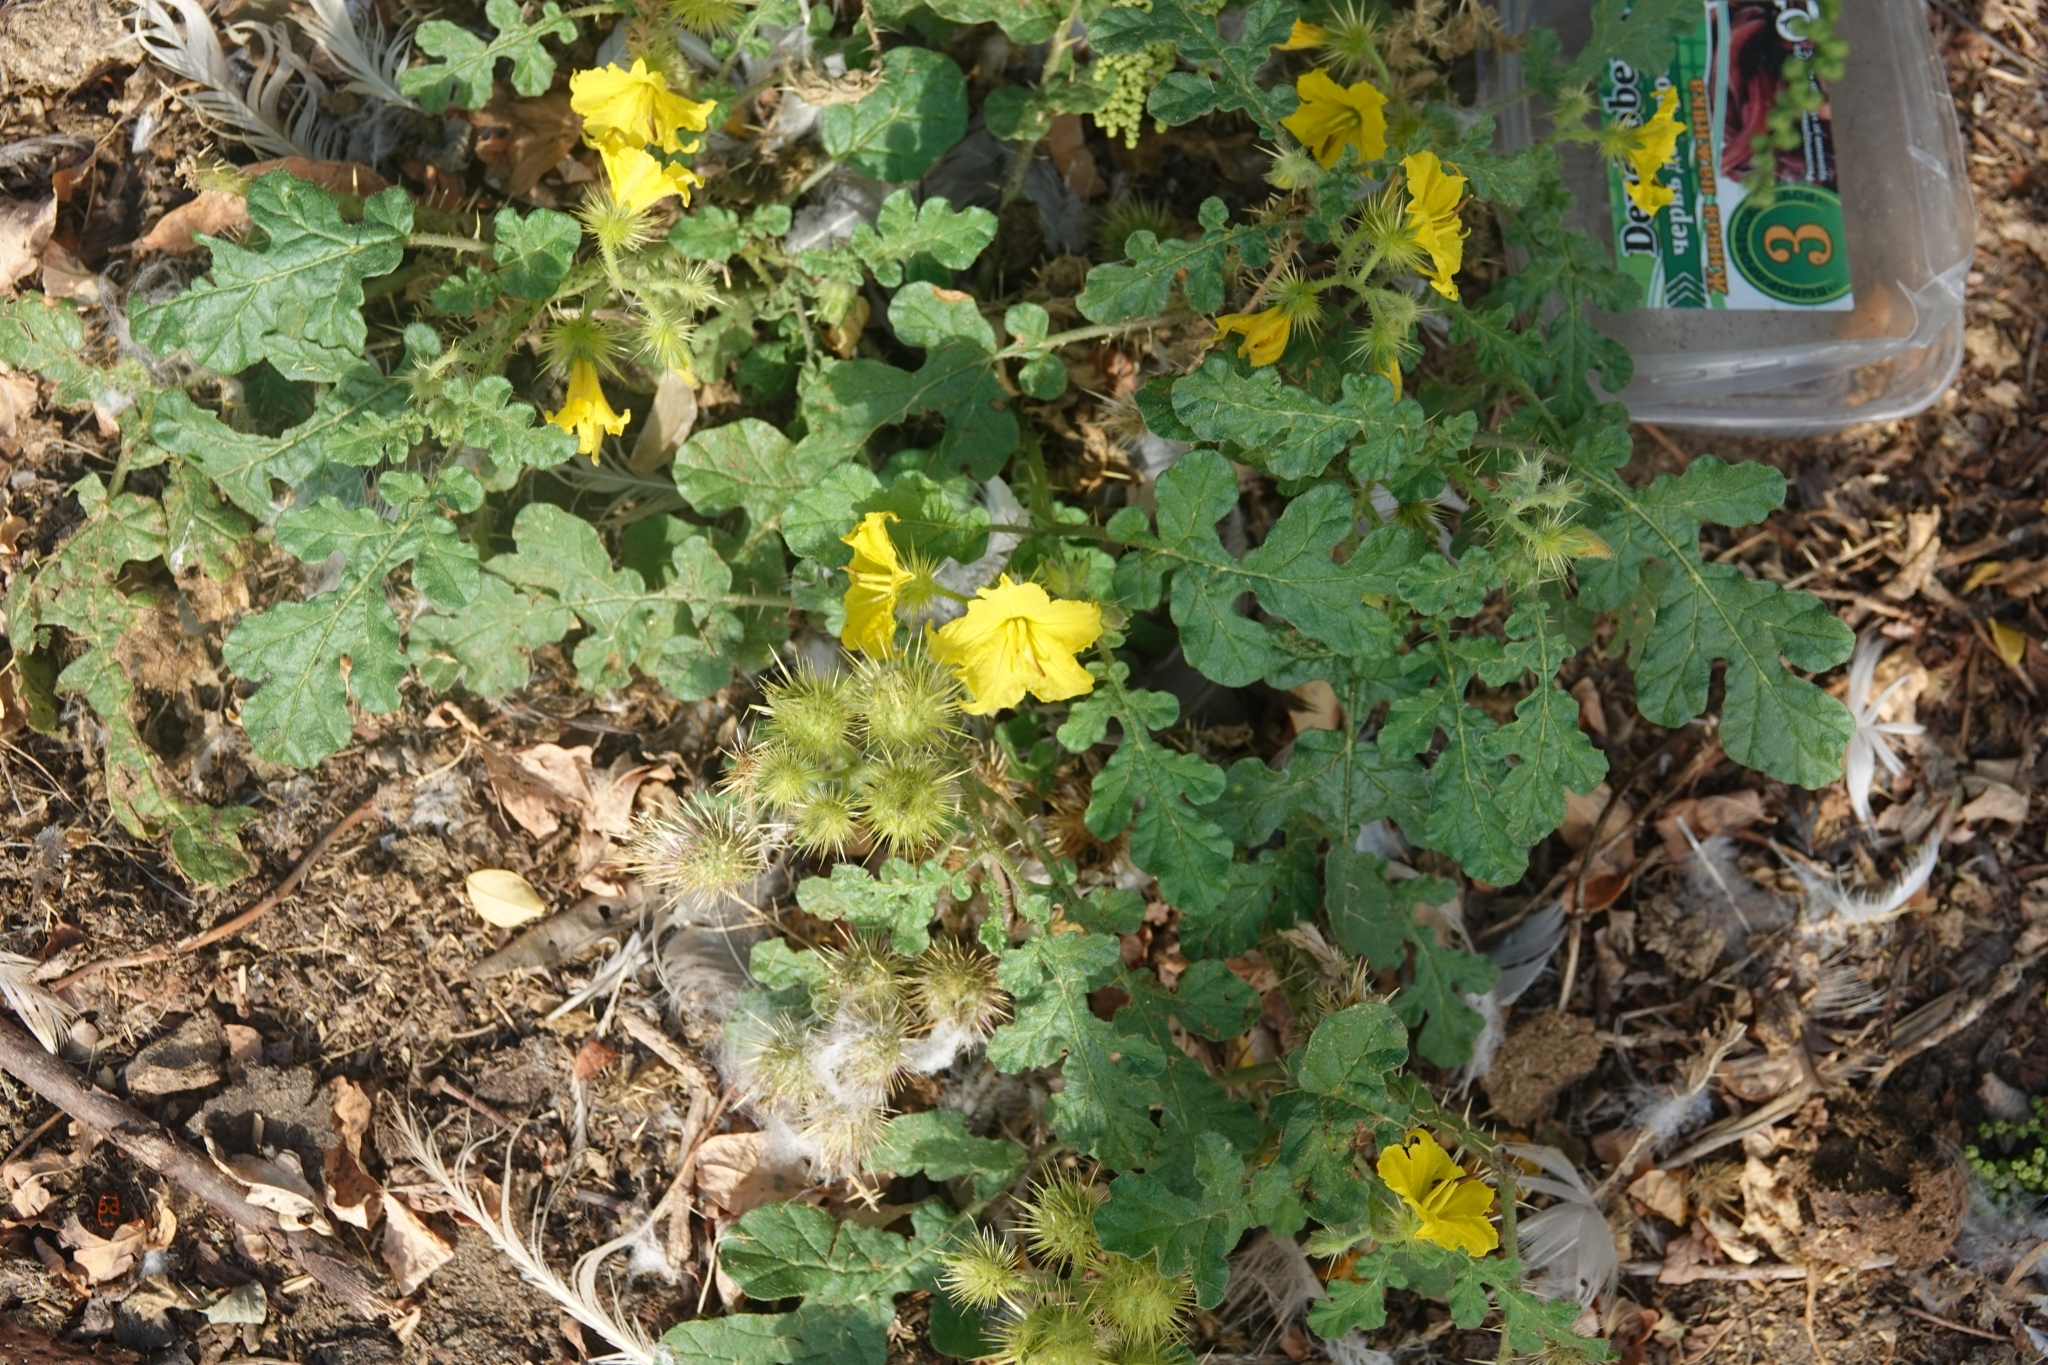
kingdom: Plantae
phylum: Tracheophyta
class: Magnoliopsida
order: Solanales
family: Solanaceae
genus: Solanum
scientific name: Solanum angustifolium
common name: Buffalobur nightshade
